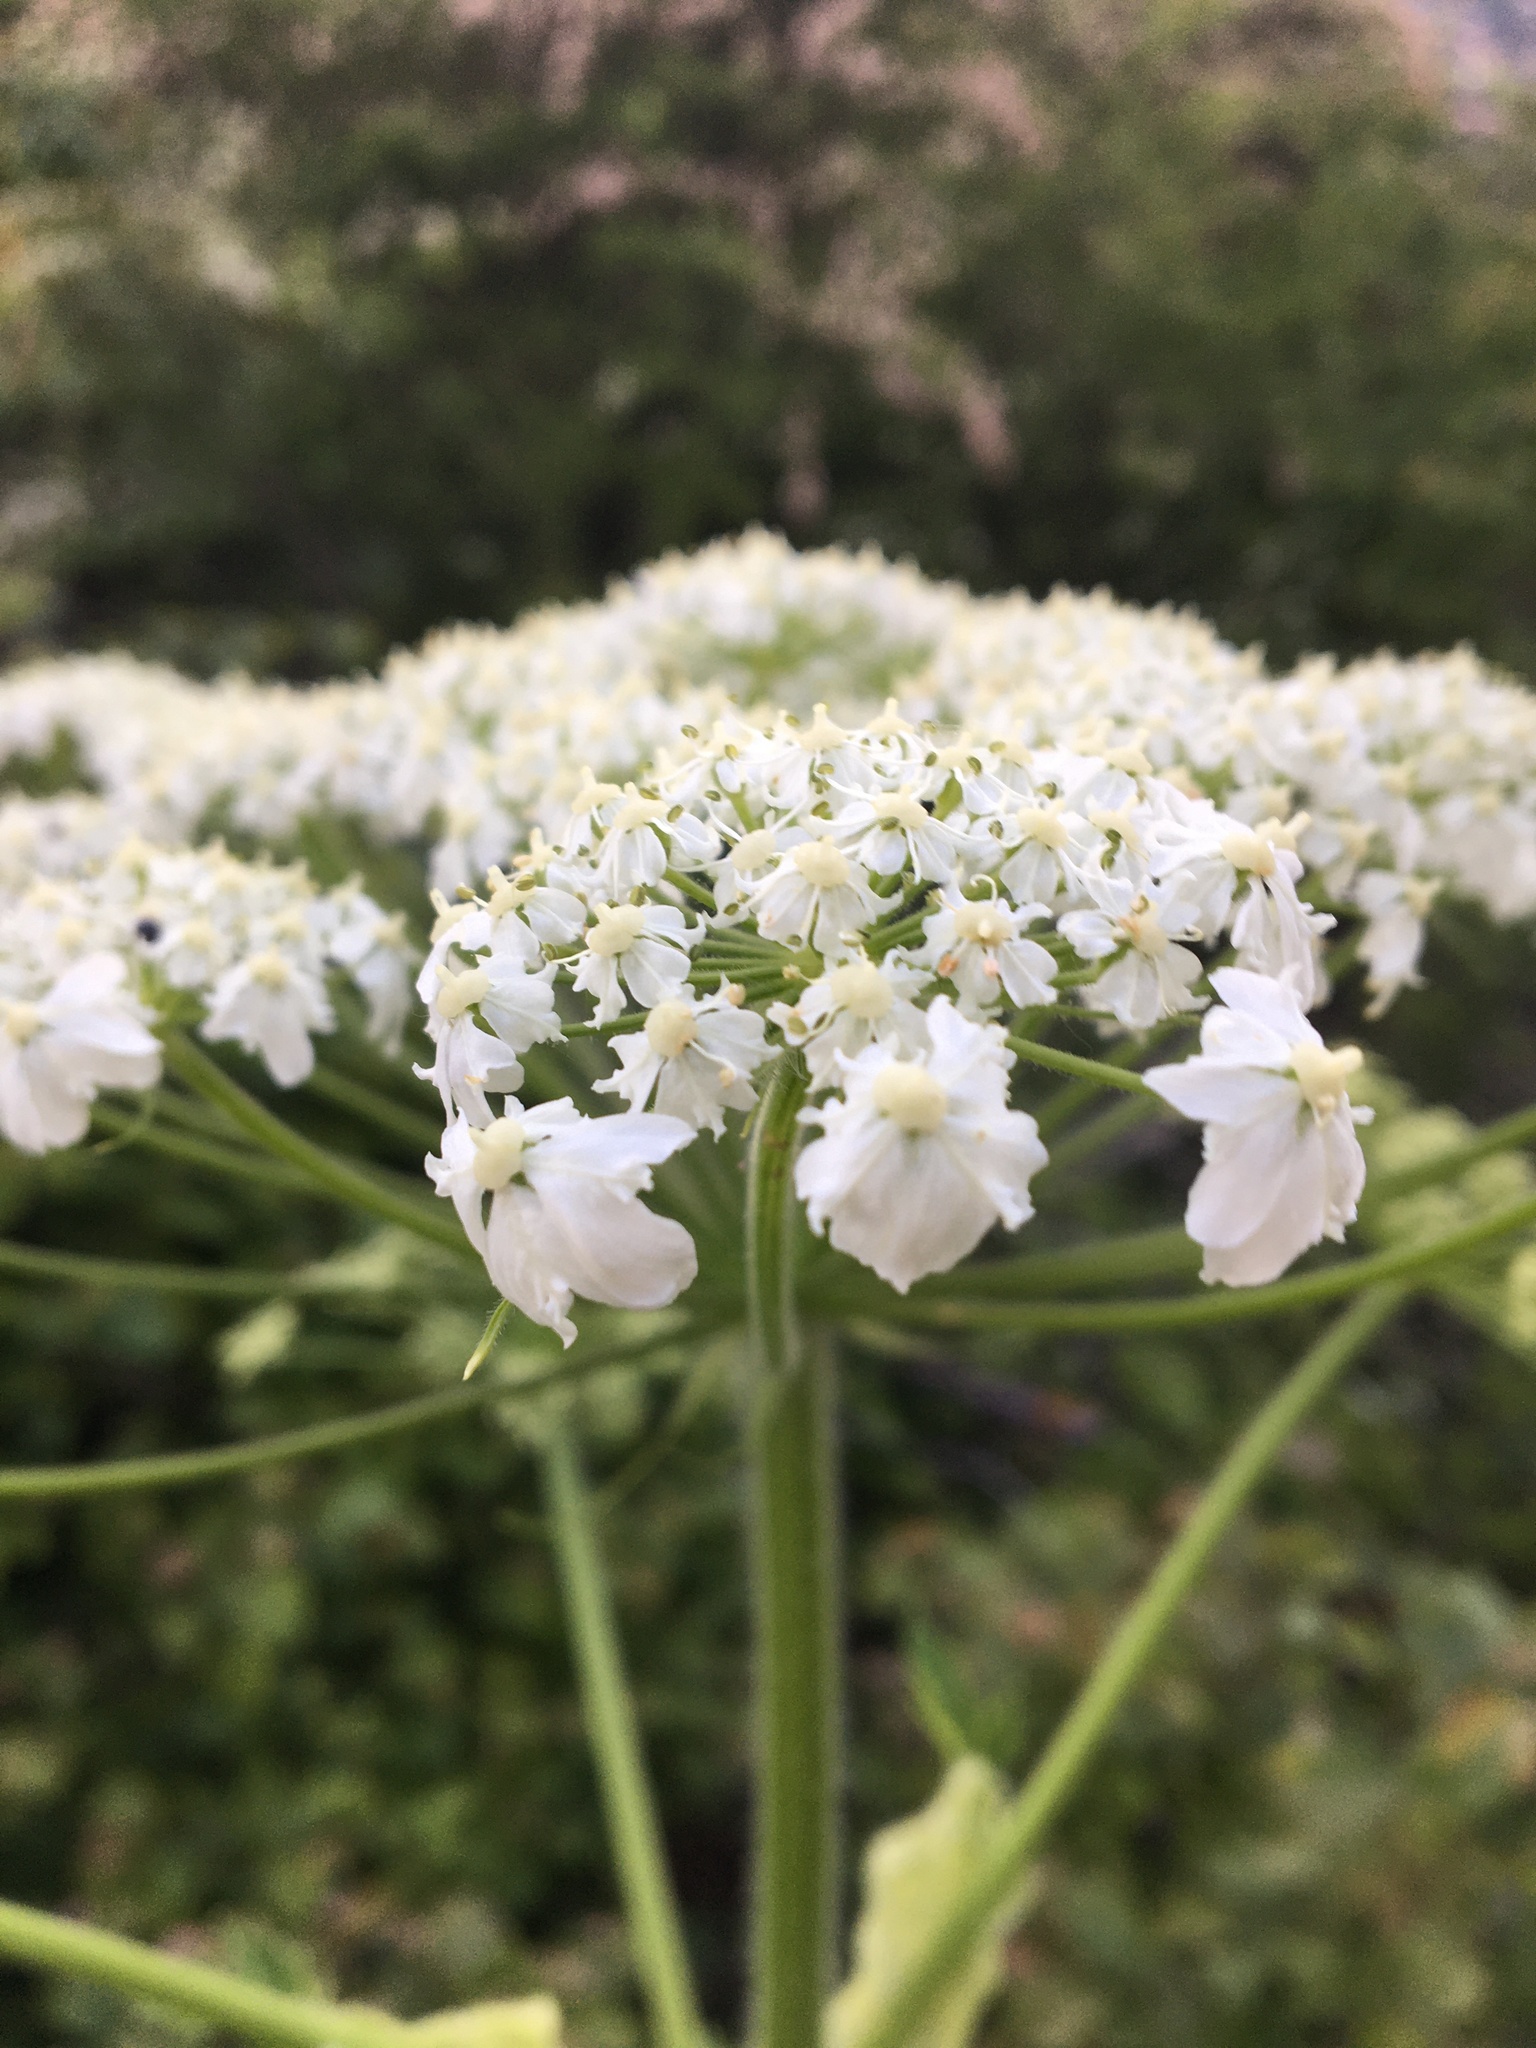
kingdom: Plantae
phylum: Tracheophyta
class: Magnoliopsida
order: Apiales
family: Apiaceae
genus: Heracleum
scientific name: Heracleum maximum
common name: American cow parsnip
